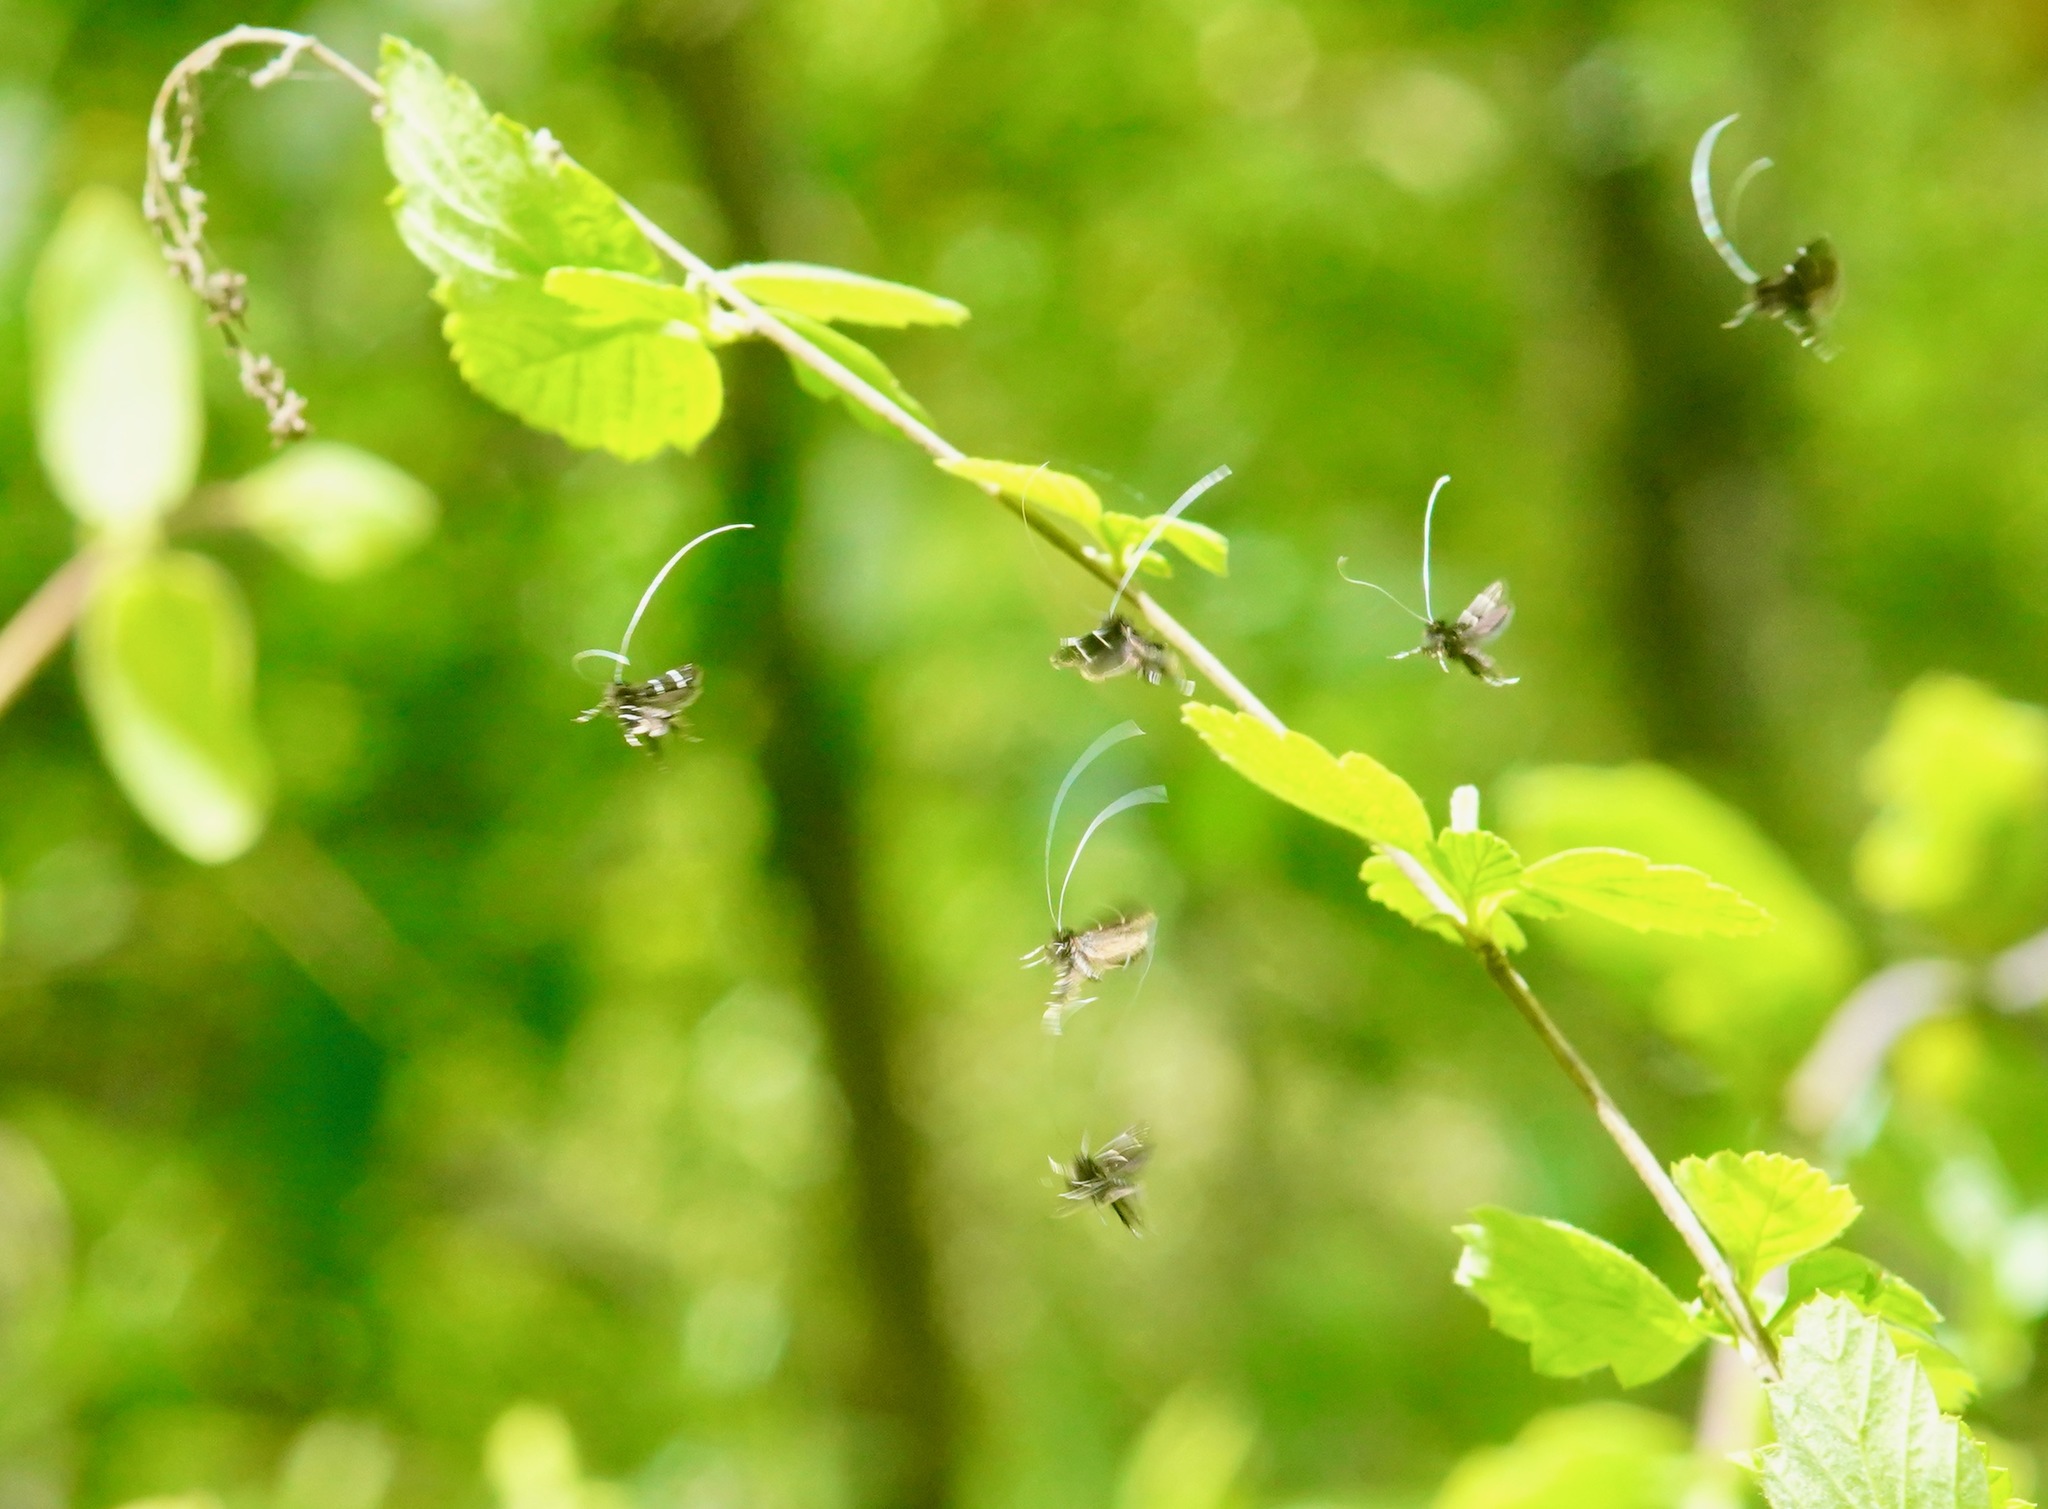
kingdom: Animalia
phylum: Arthropoda
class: Insecta
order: Lepidoptera
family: Adelidae
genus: Adela
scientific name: Adela septentrionella
